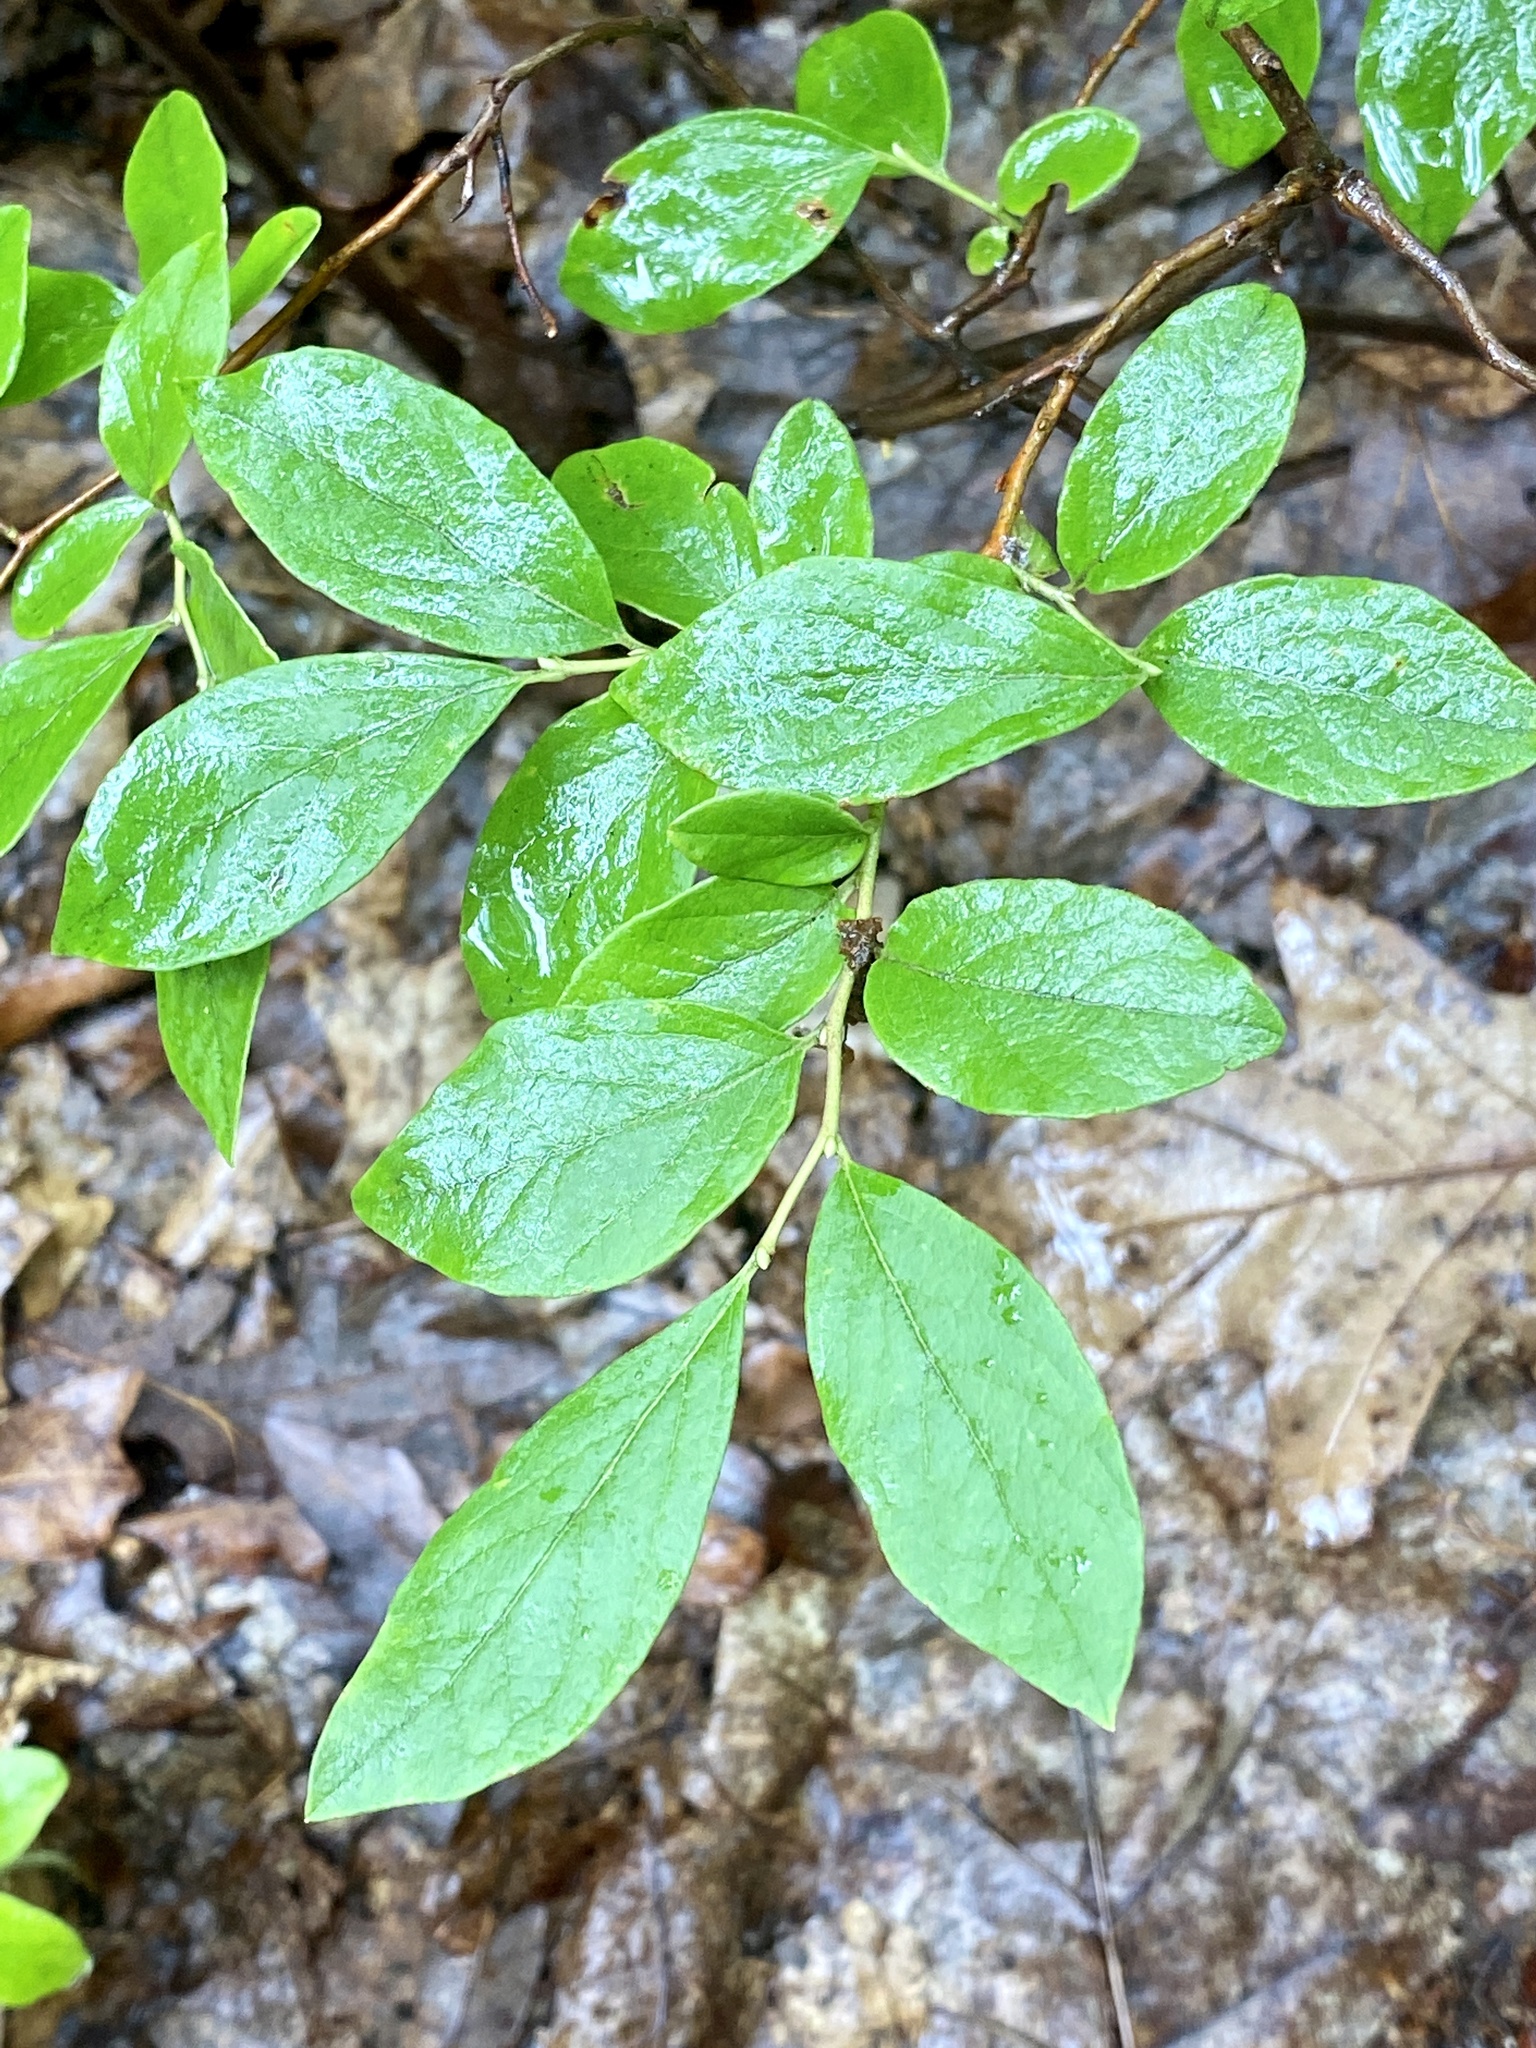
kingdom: Plantae
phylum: Tracheophyta
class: Magnoliopsida
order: Ericales
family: Ericaceae
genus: Gaylussacia
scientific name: Gaylussacia baccata
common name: Black huckleberry
